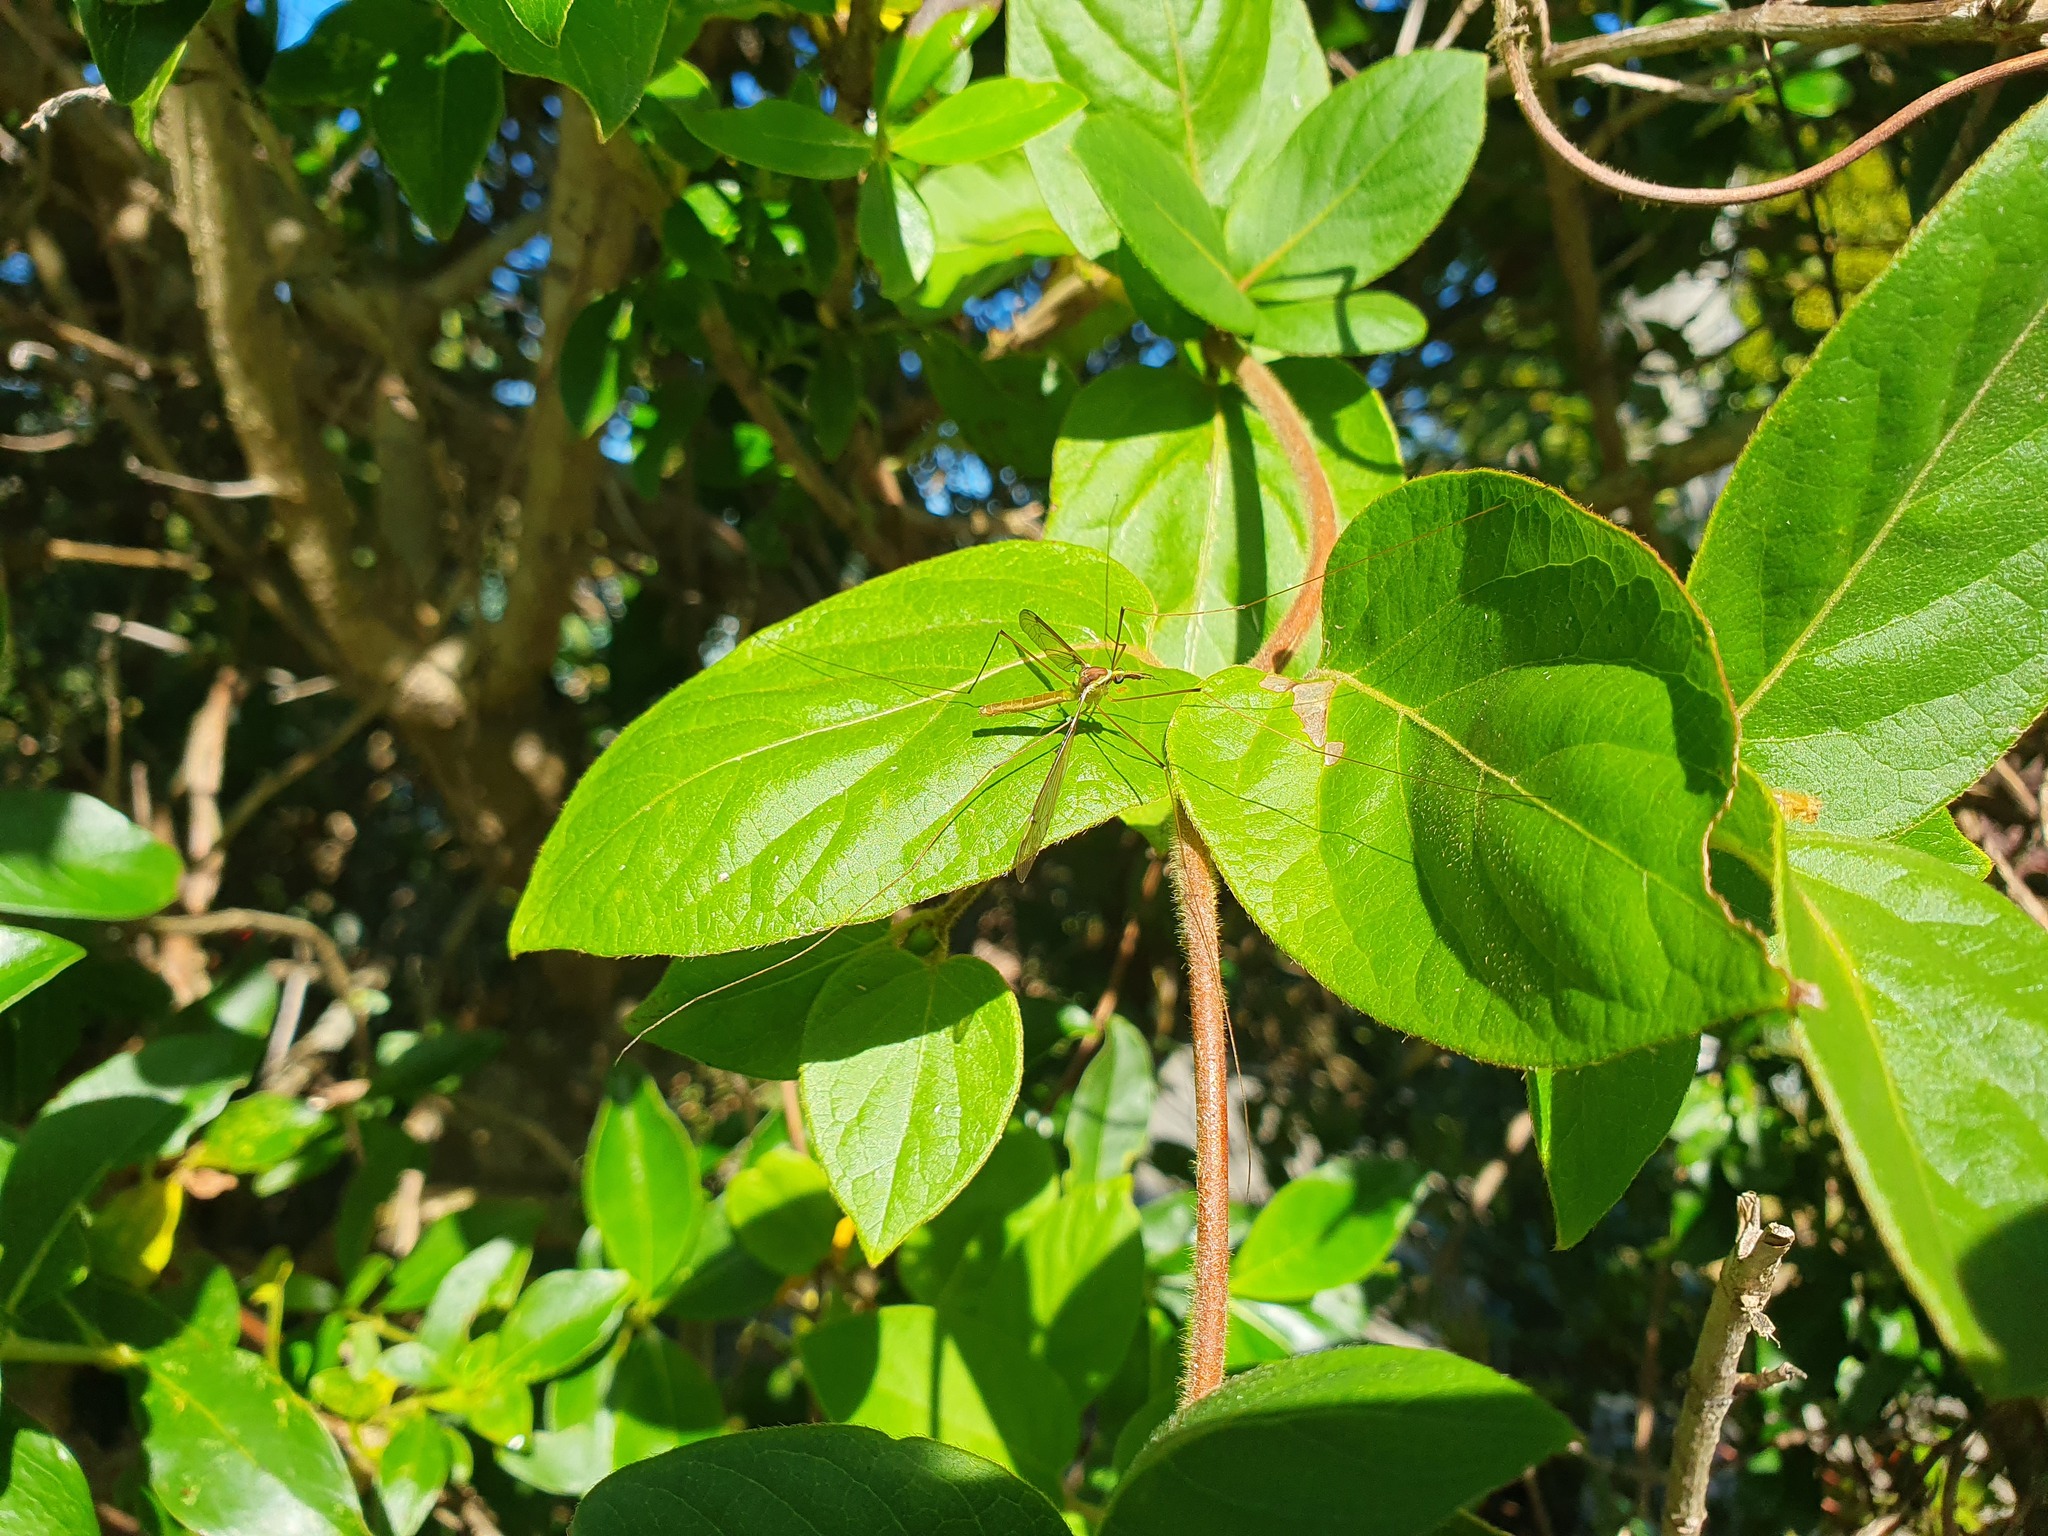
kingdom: Animalia
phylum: Arthropoda
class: Insecta
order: Diptera
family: Tipulidae
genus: Leptotarsus
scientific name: Leptotarsus albistigma
